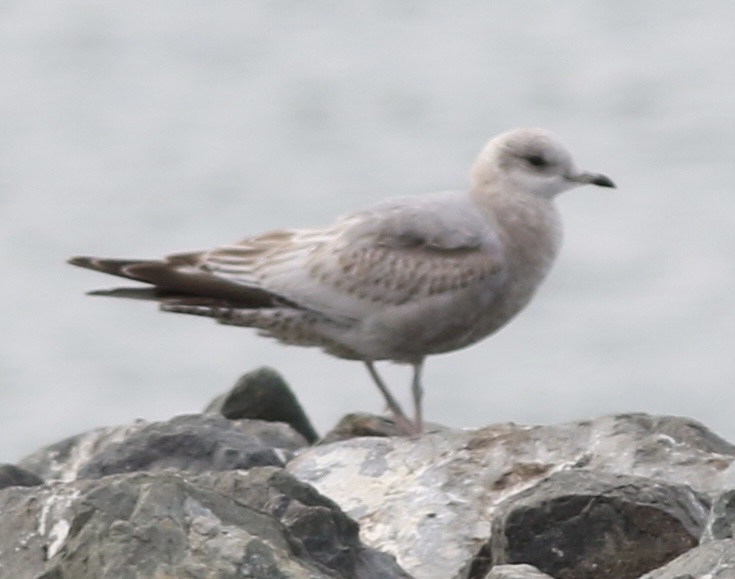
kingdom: Animalia
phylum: Chordata
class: Aves
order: Charadriiformes
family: Laridae
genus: Larus
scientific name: Larus brachyrhynchus
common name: Short-billed gull
